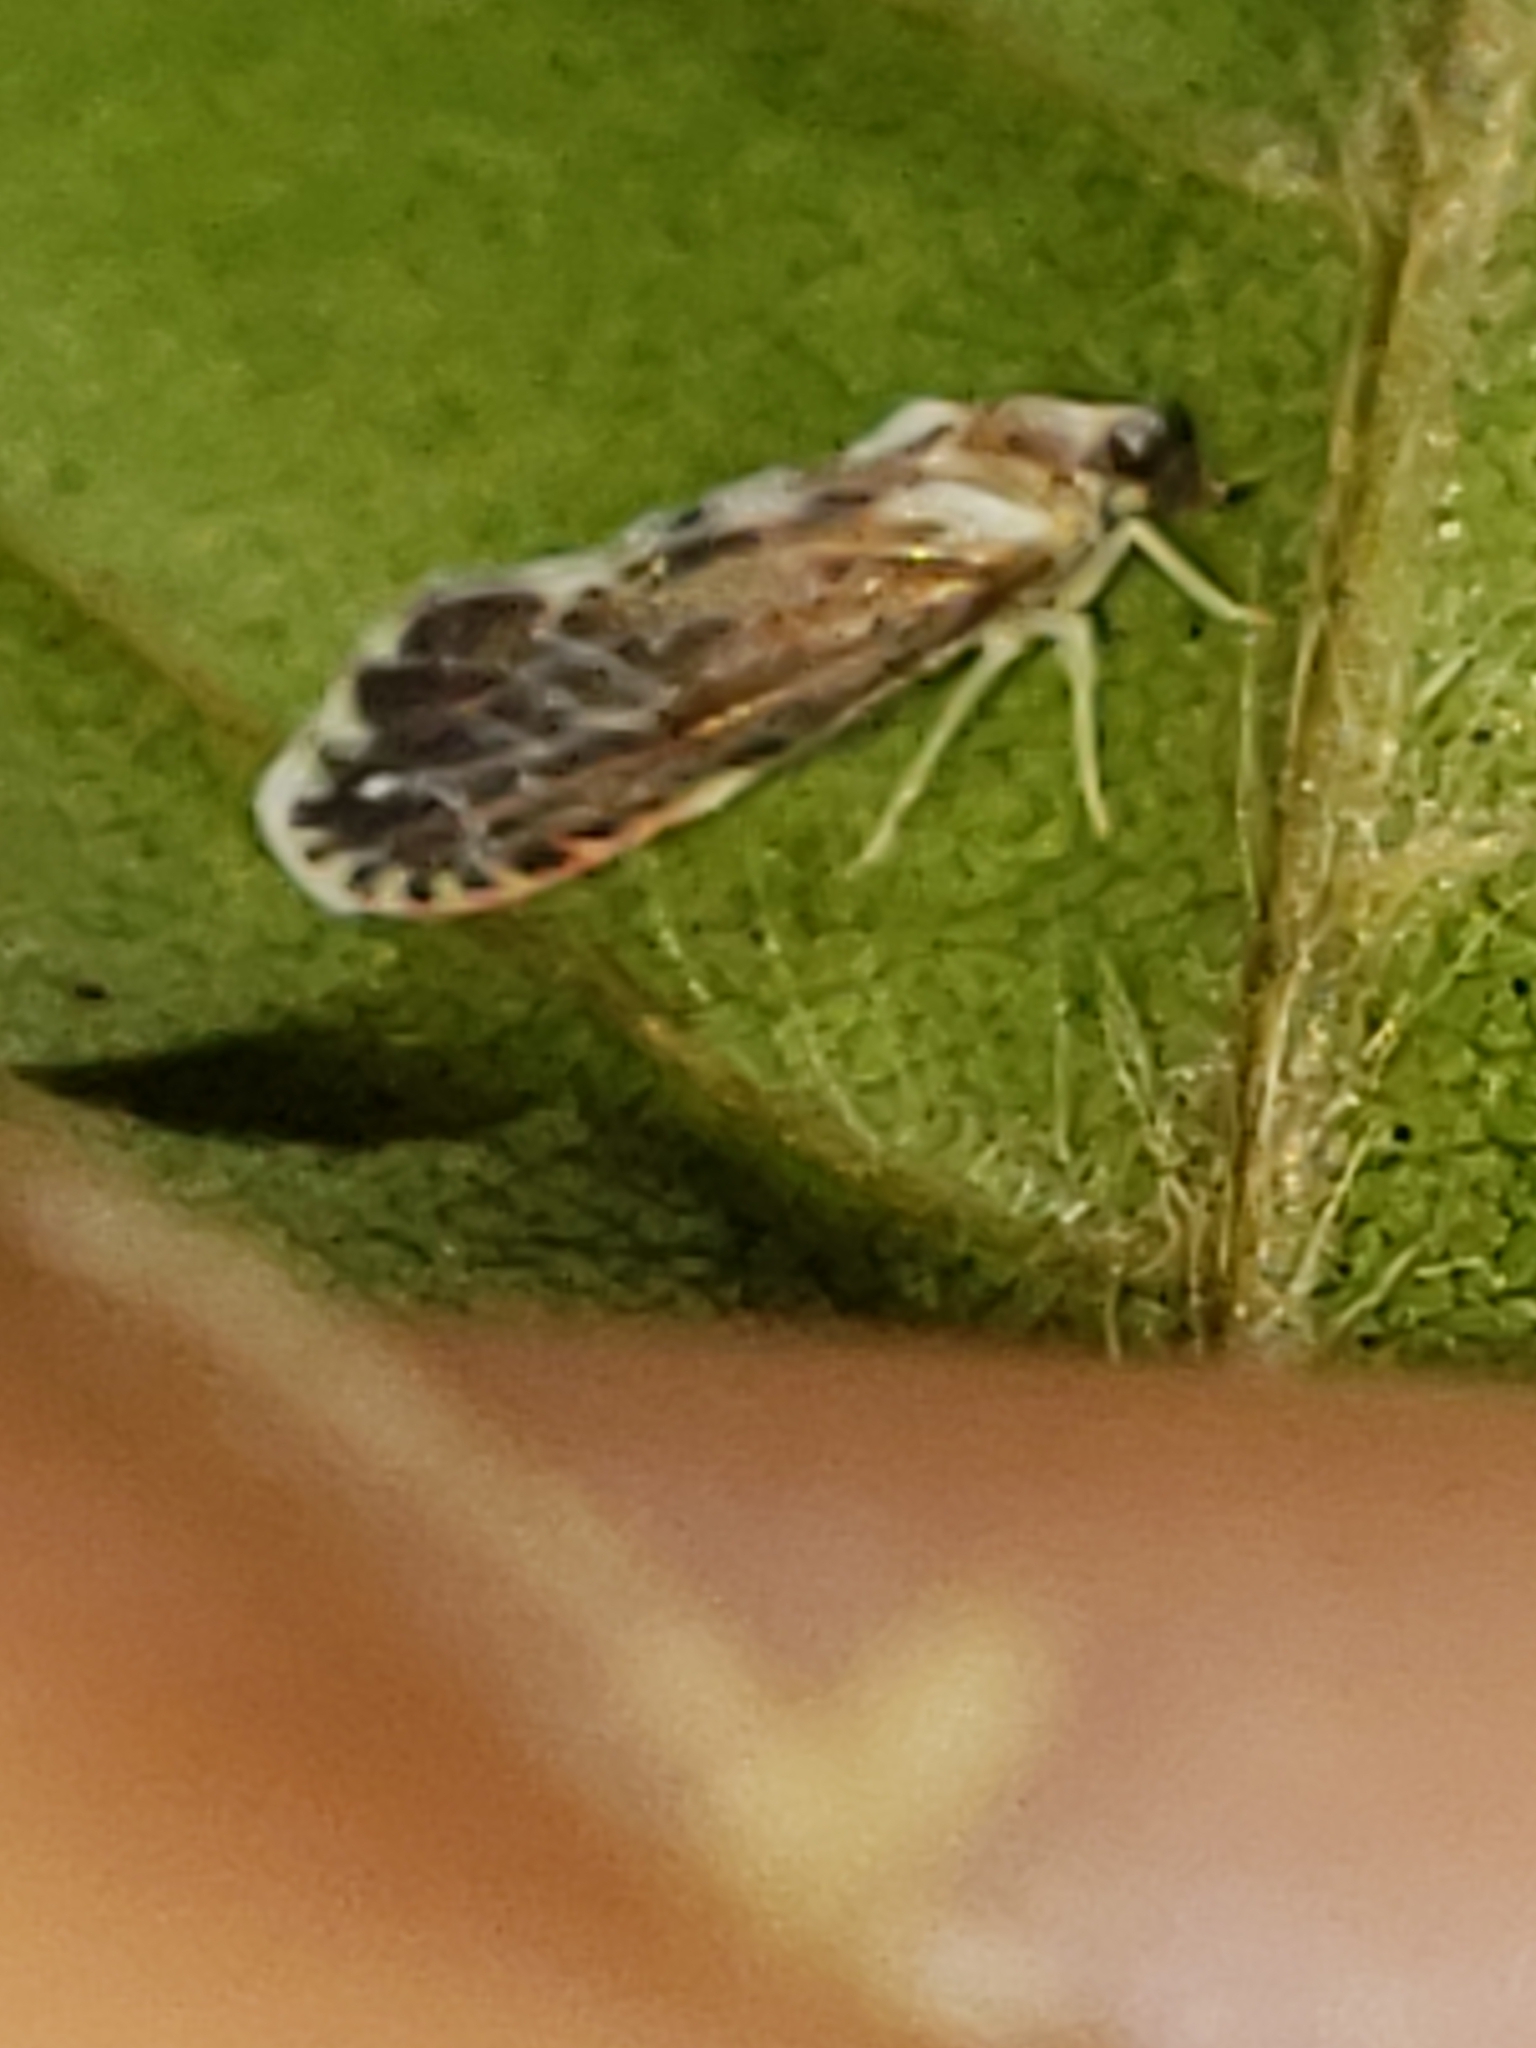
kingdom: Animalia
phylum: Arthropoda
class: Insecta
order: Hemiptera
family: Derbidae
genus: Patara
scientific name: Patara vanduzei
